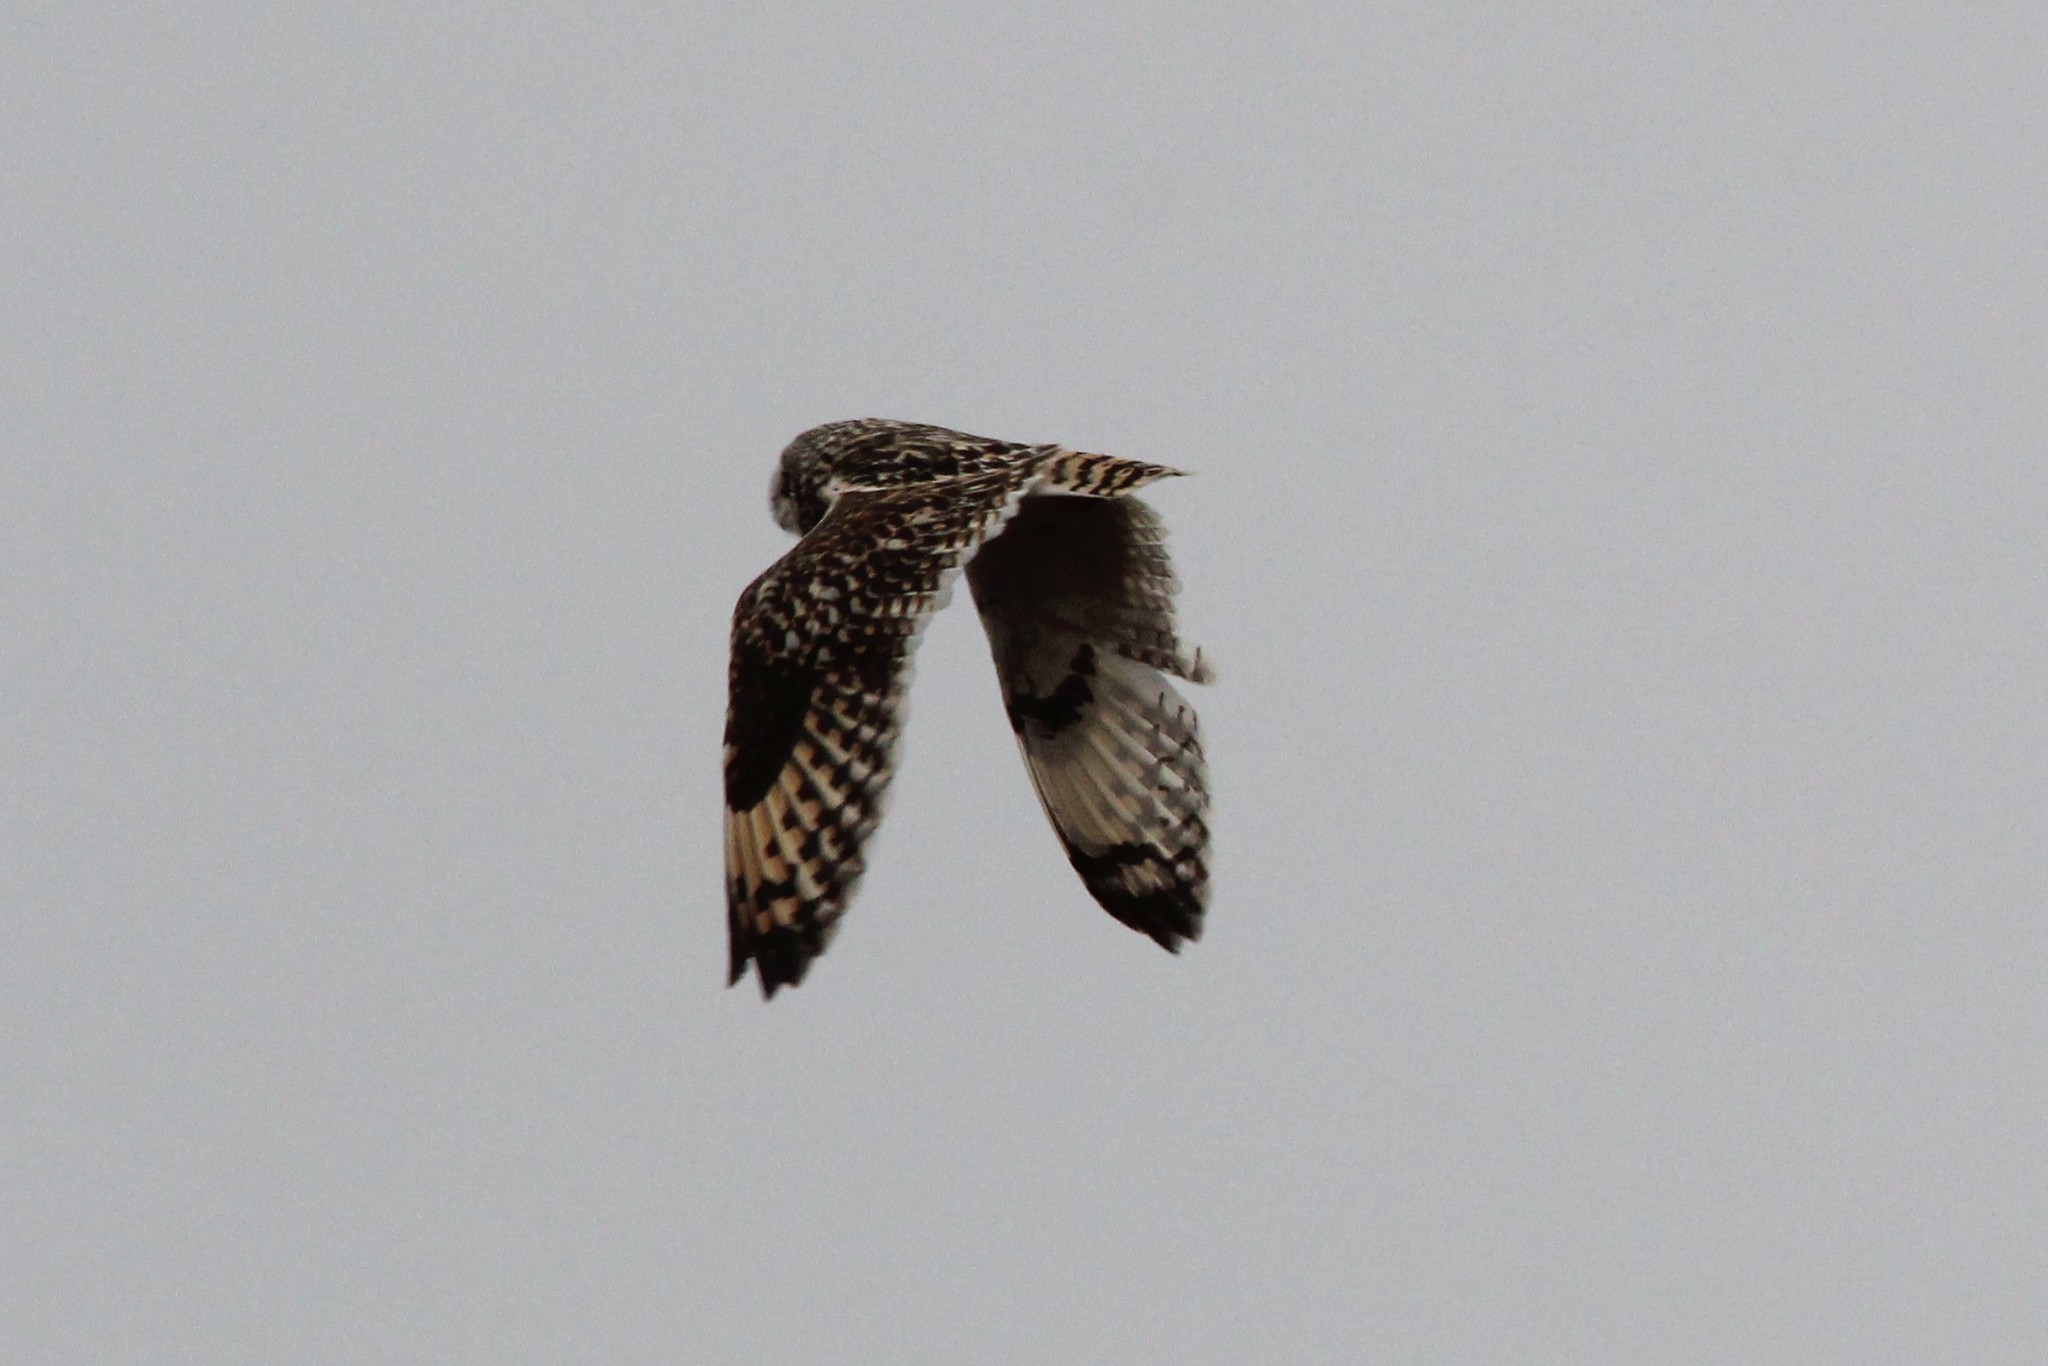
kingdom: Animalia
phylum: Chordata
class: Aves
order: Strigiformes
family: Strigidae
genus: Asio
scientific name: Asio flammeus
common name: Short-eared owl
